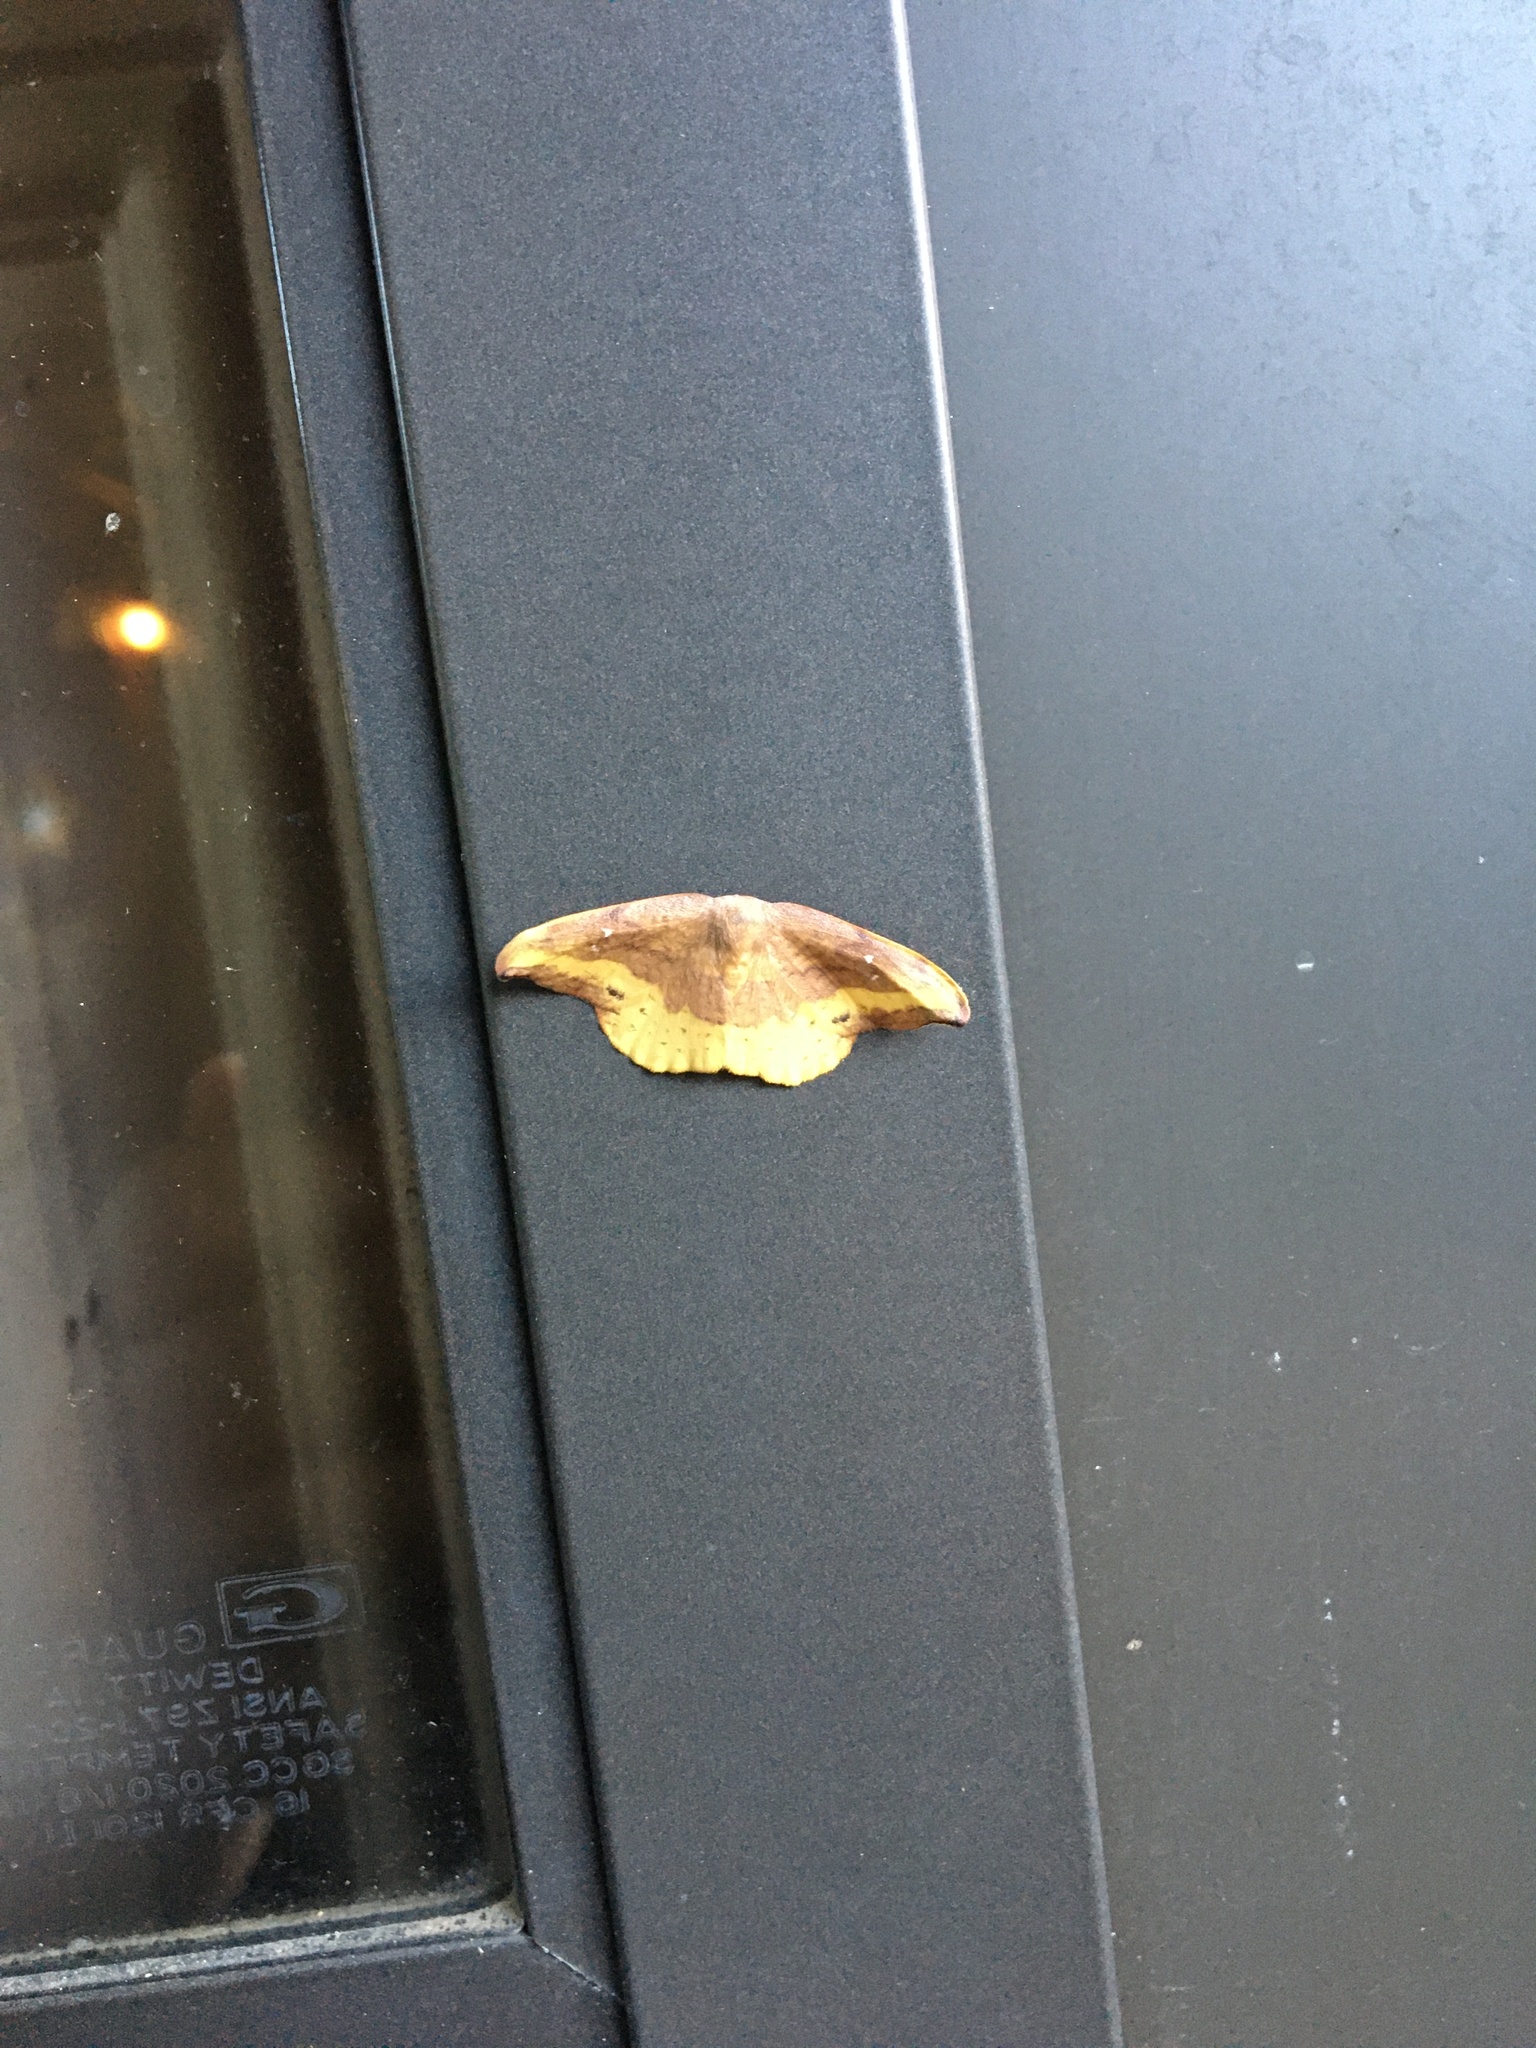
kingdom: Animalia
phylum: Arthropoda
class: Insecta
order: Lepidoptera
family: Drepanidae
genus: Oreta
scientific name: Oreta rosea
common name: Rose hooktip
